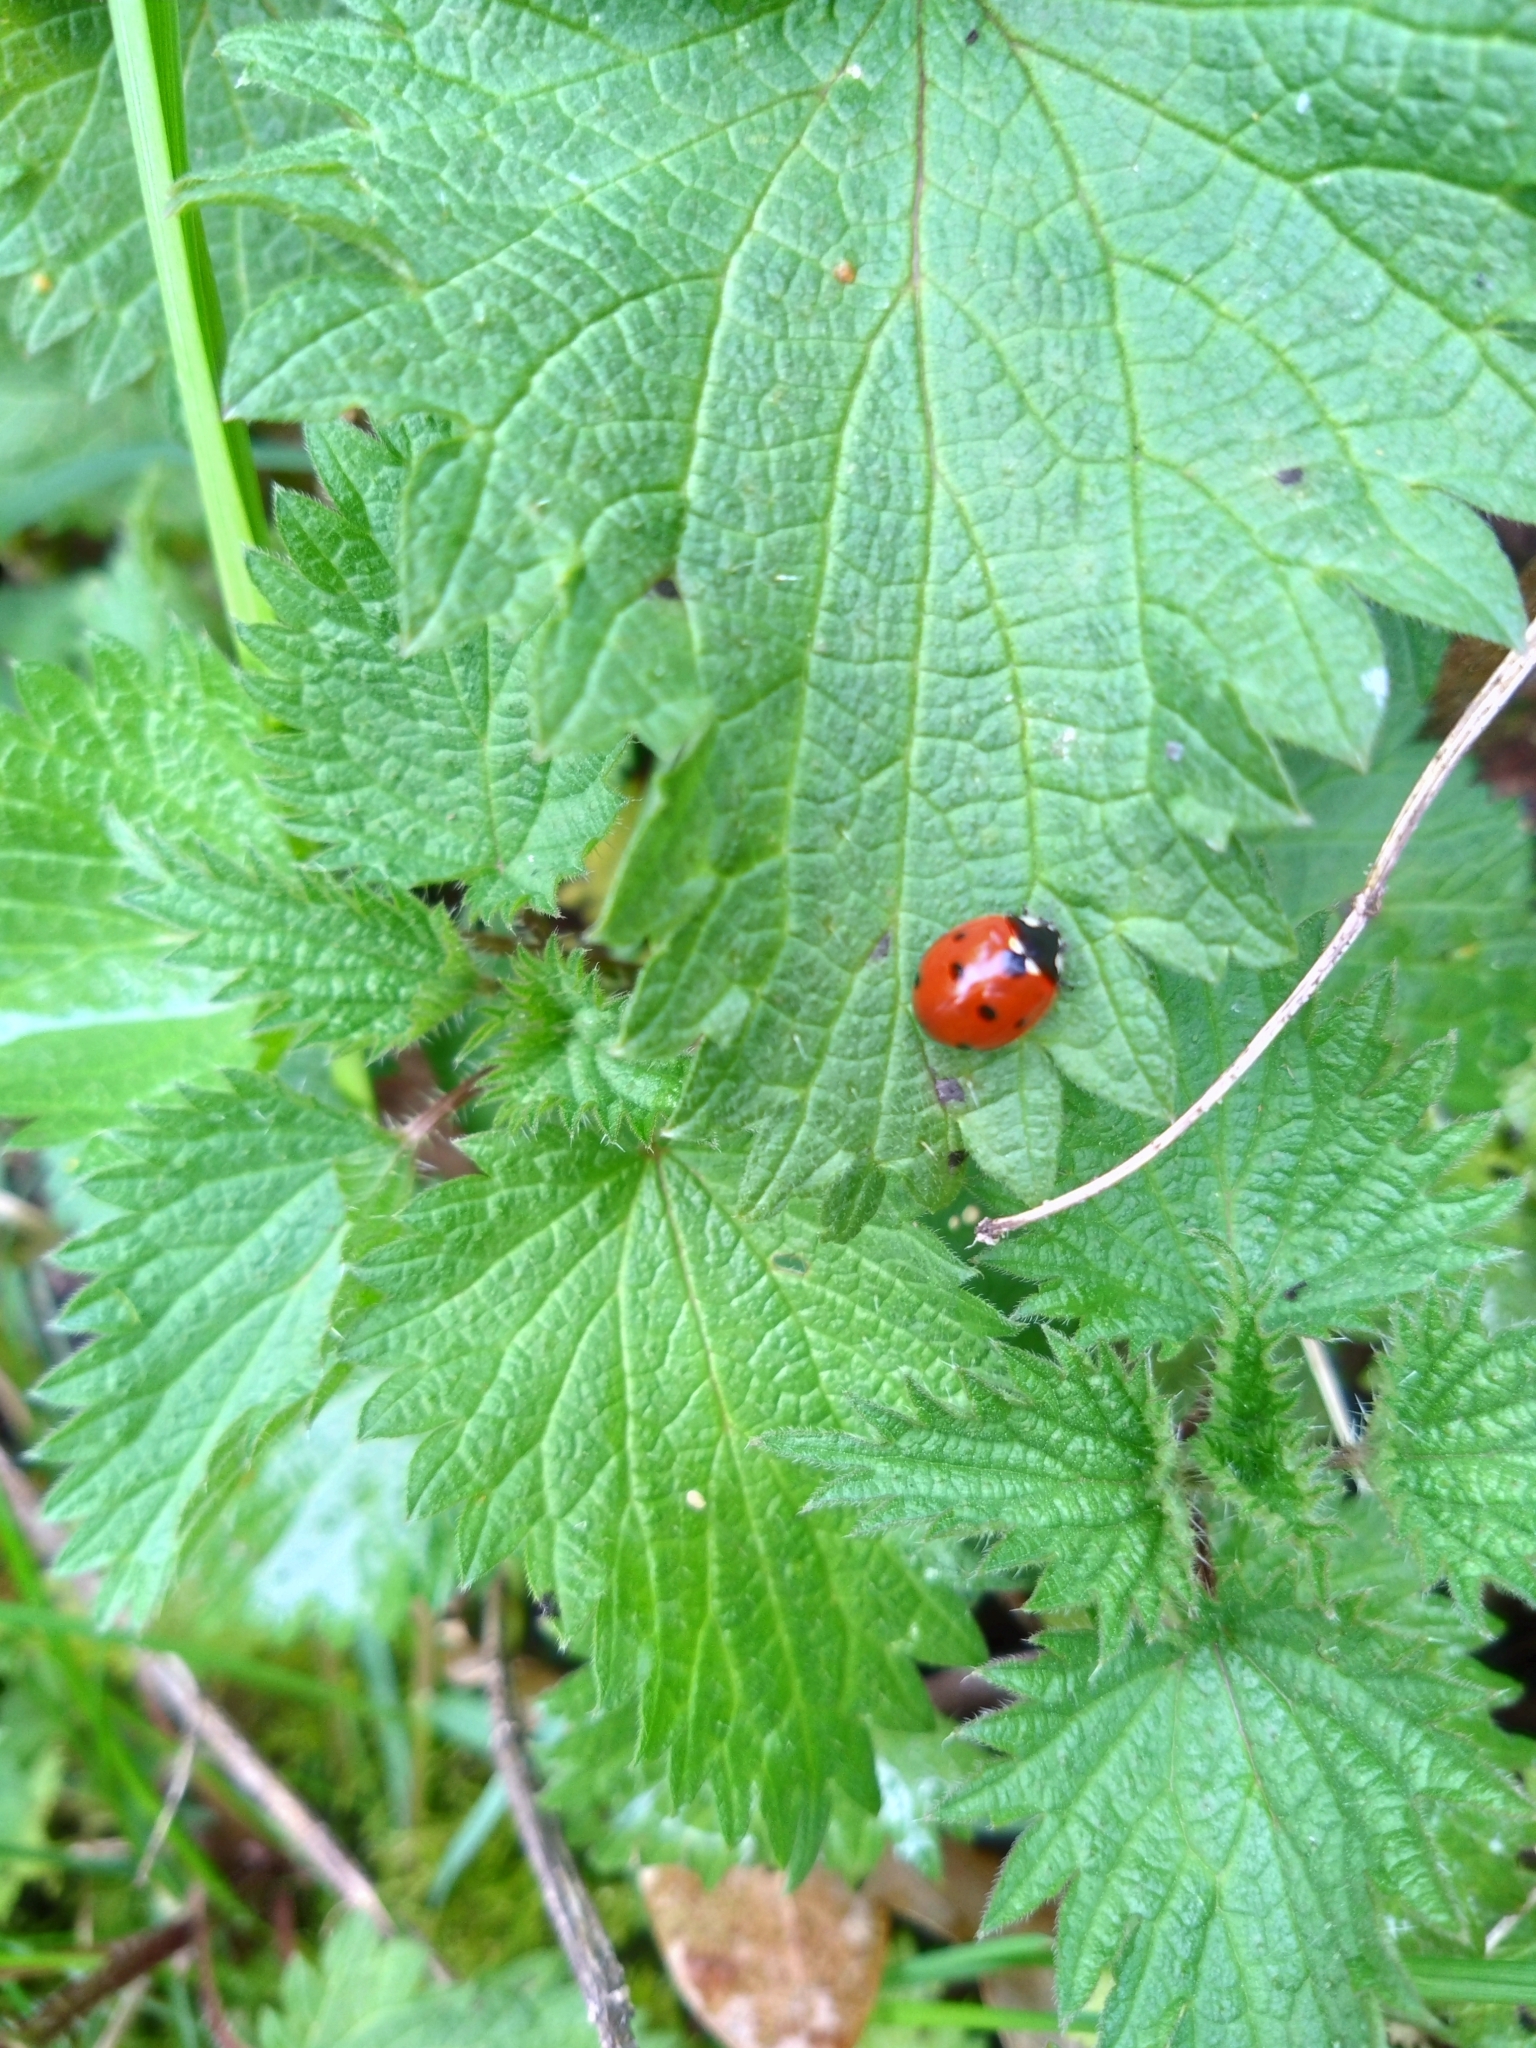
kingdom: Animalia
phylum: Arthropoda
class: Insecta
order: Coleoptera
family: Coccinellidae
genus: Coccinella
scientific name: Coccinella septempunctata
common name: Sevenspotted lady beetle
